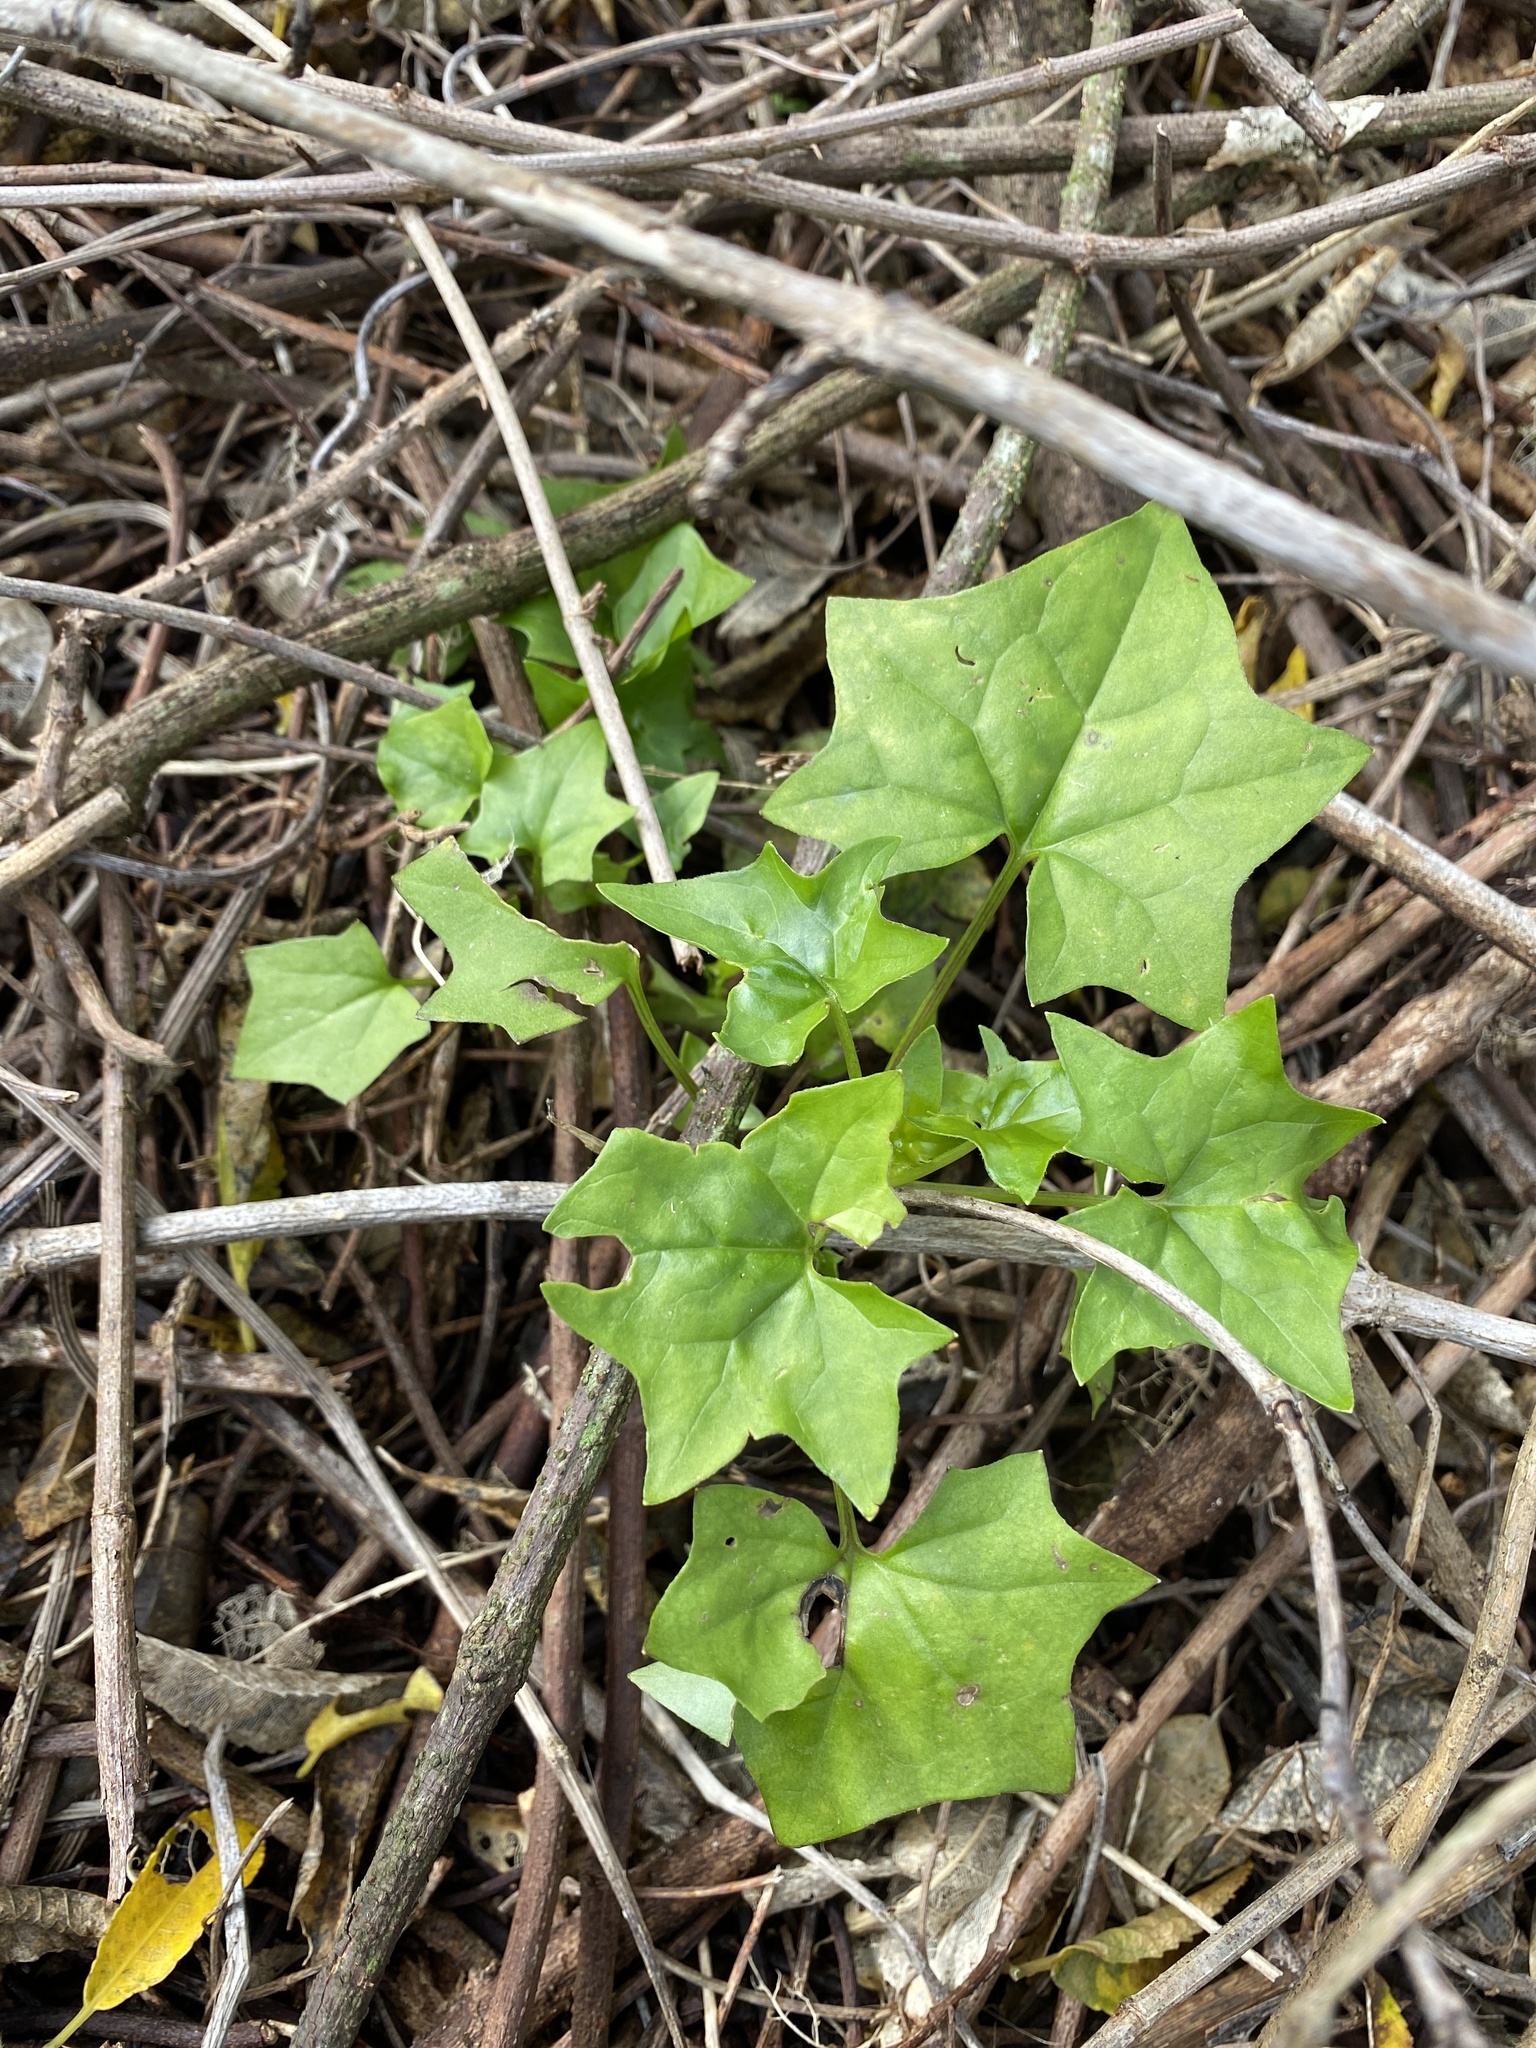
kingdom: Plantae
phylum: Tracheophyta
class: Magnoliopsida
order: Asterales
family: Asteraceae
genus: Delairea
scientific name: Delairea odorata
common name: Cape-ivy
